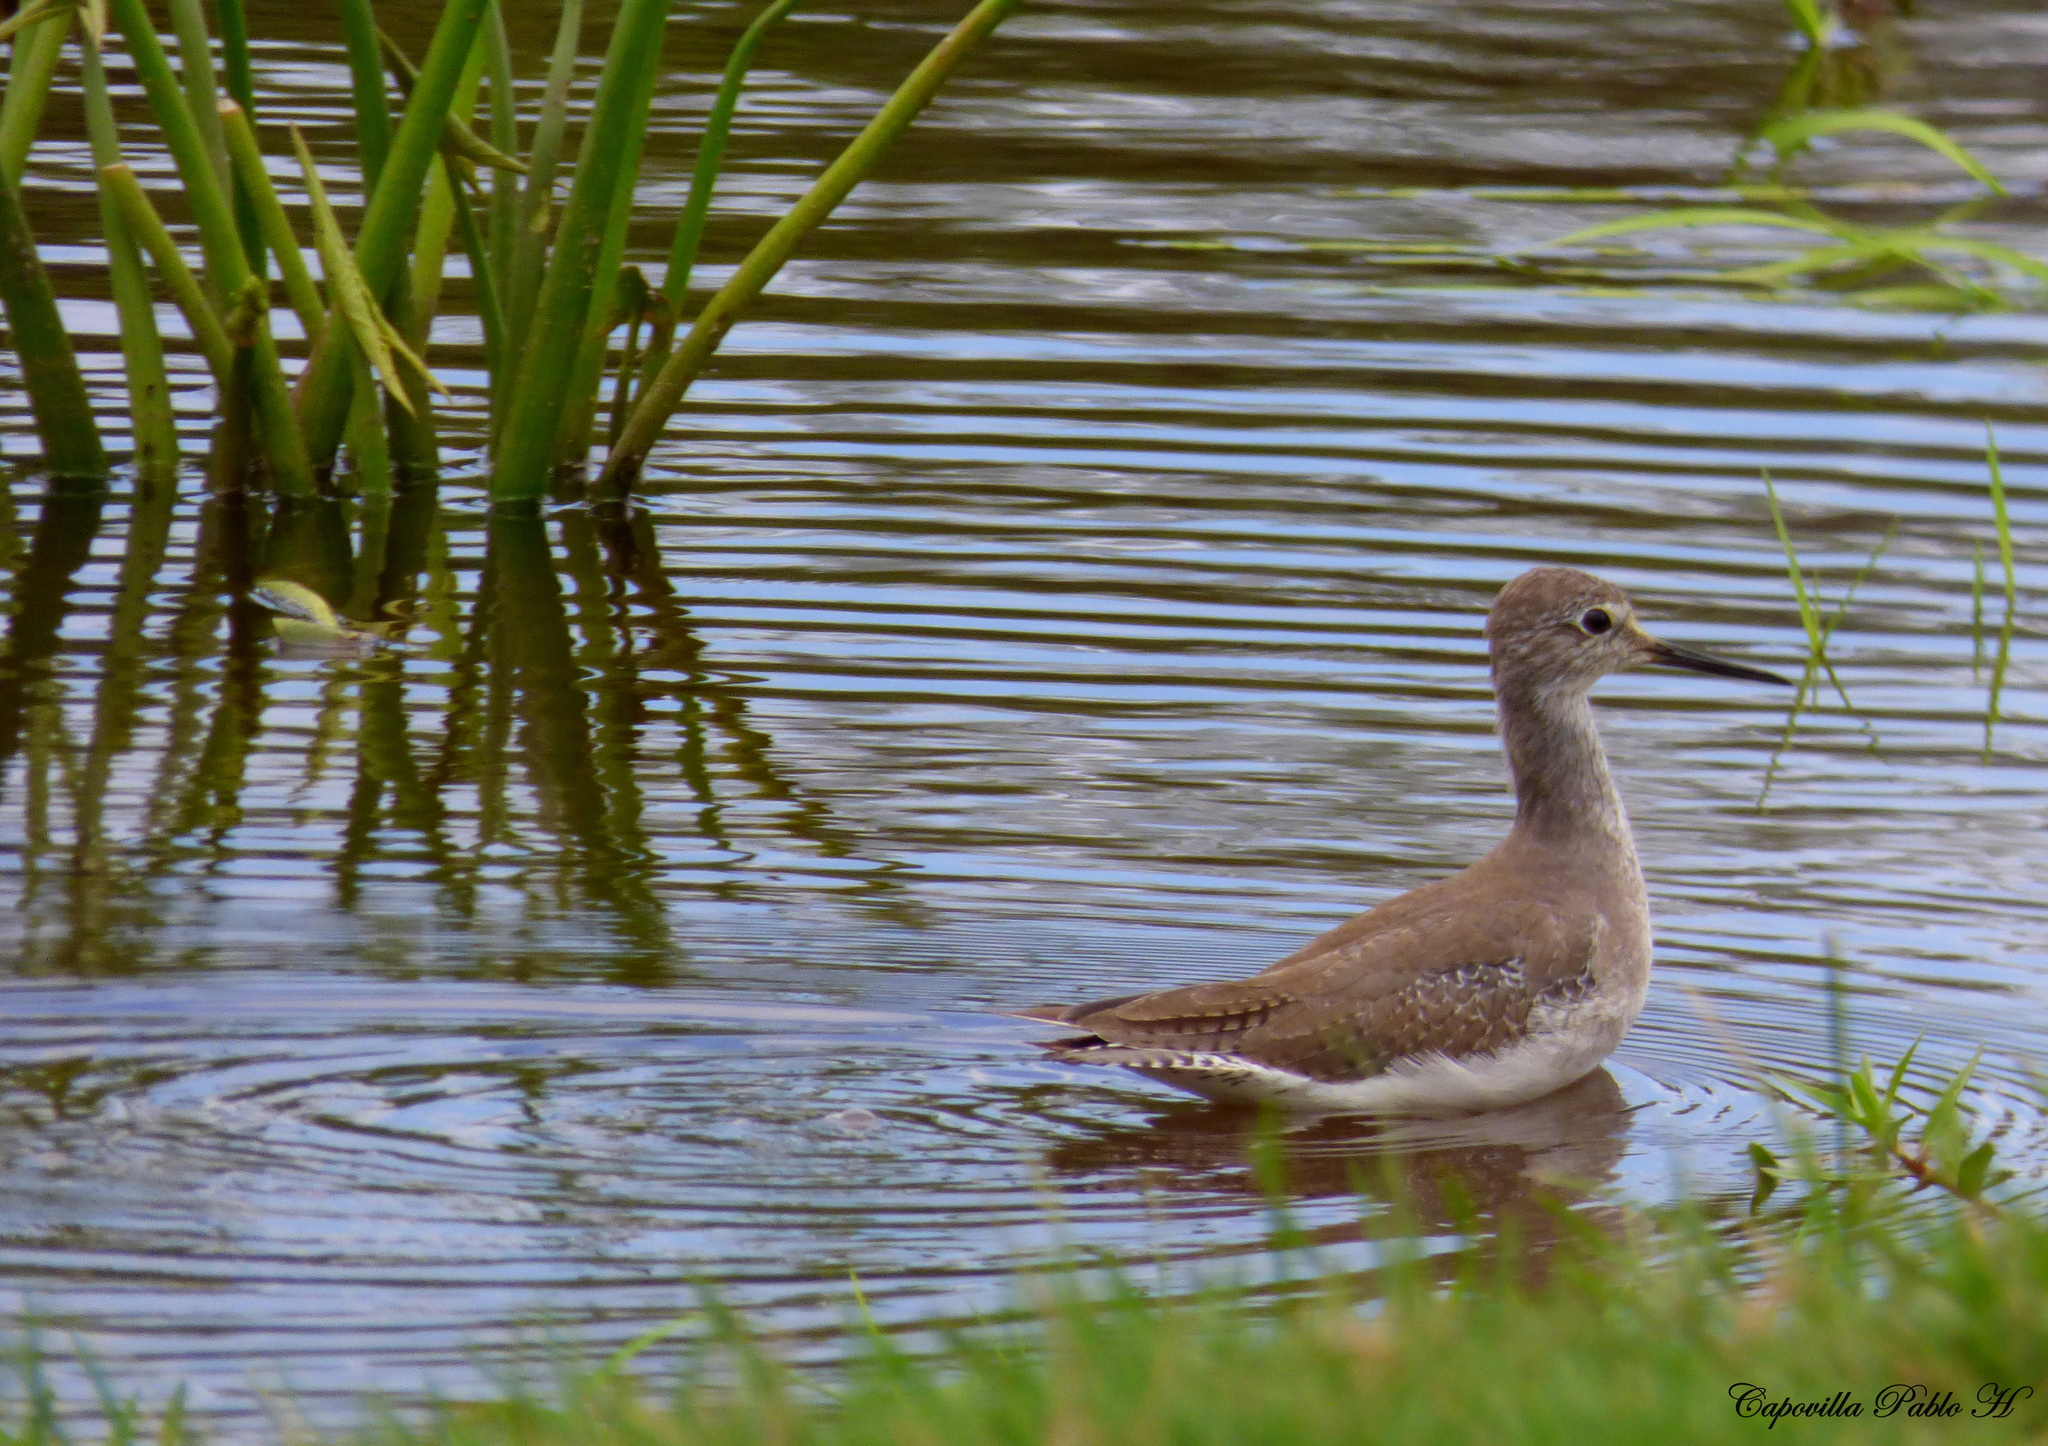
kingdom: Animalia
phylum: Chordata
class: Aves
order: Charadriiformes
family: Scolopacidae
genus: Tringa
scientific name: Tringa flavipes
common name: Lesser yellowlegs
